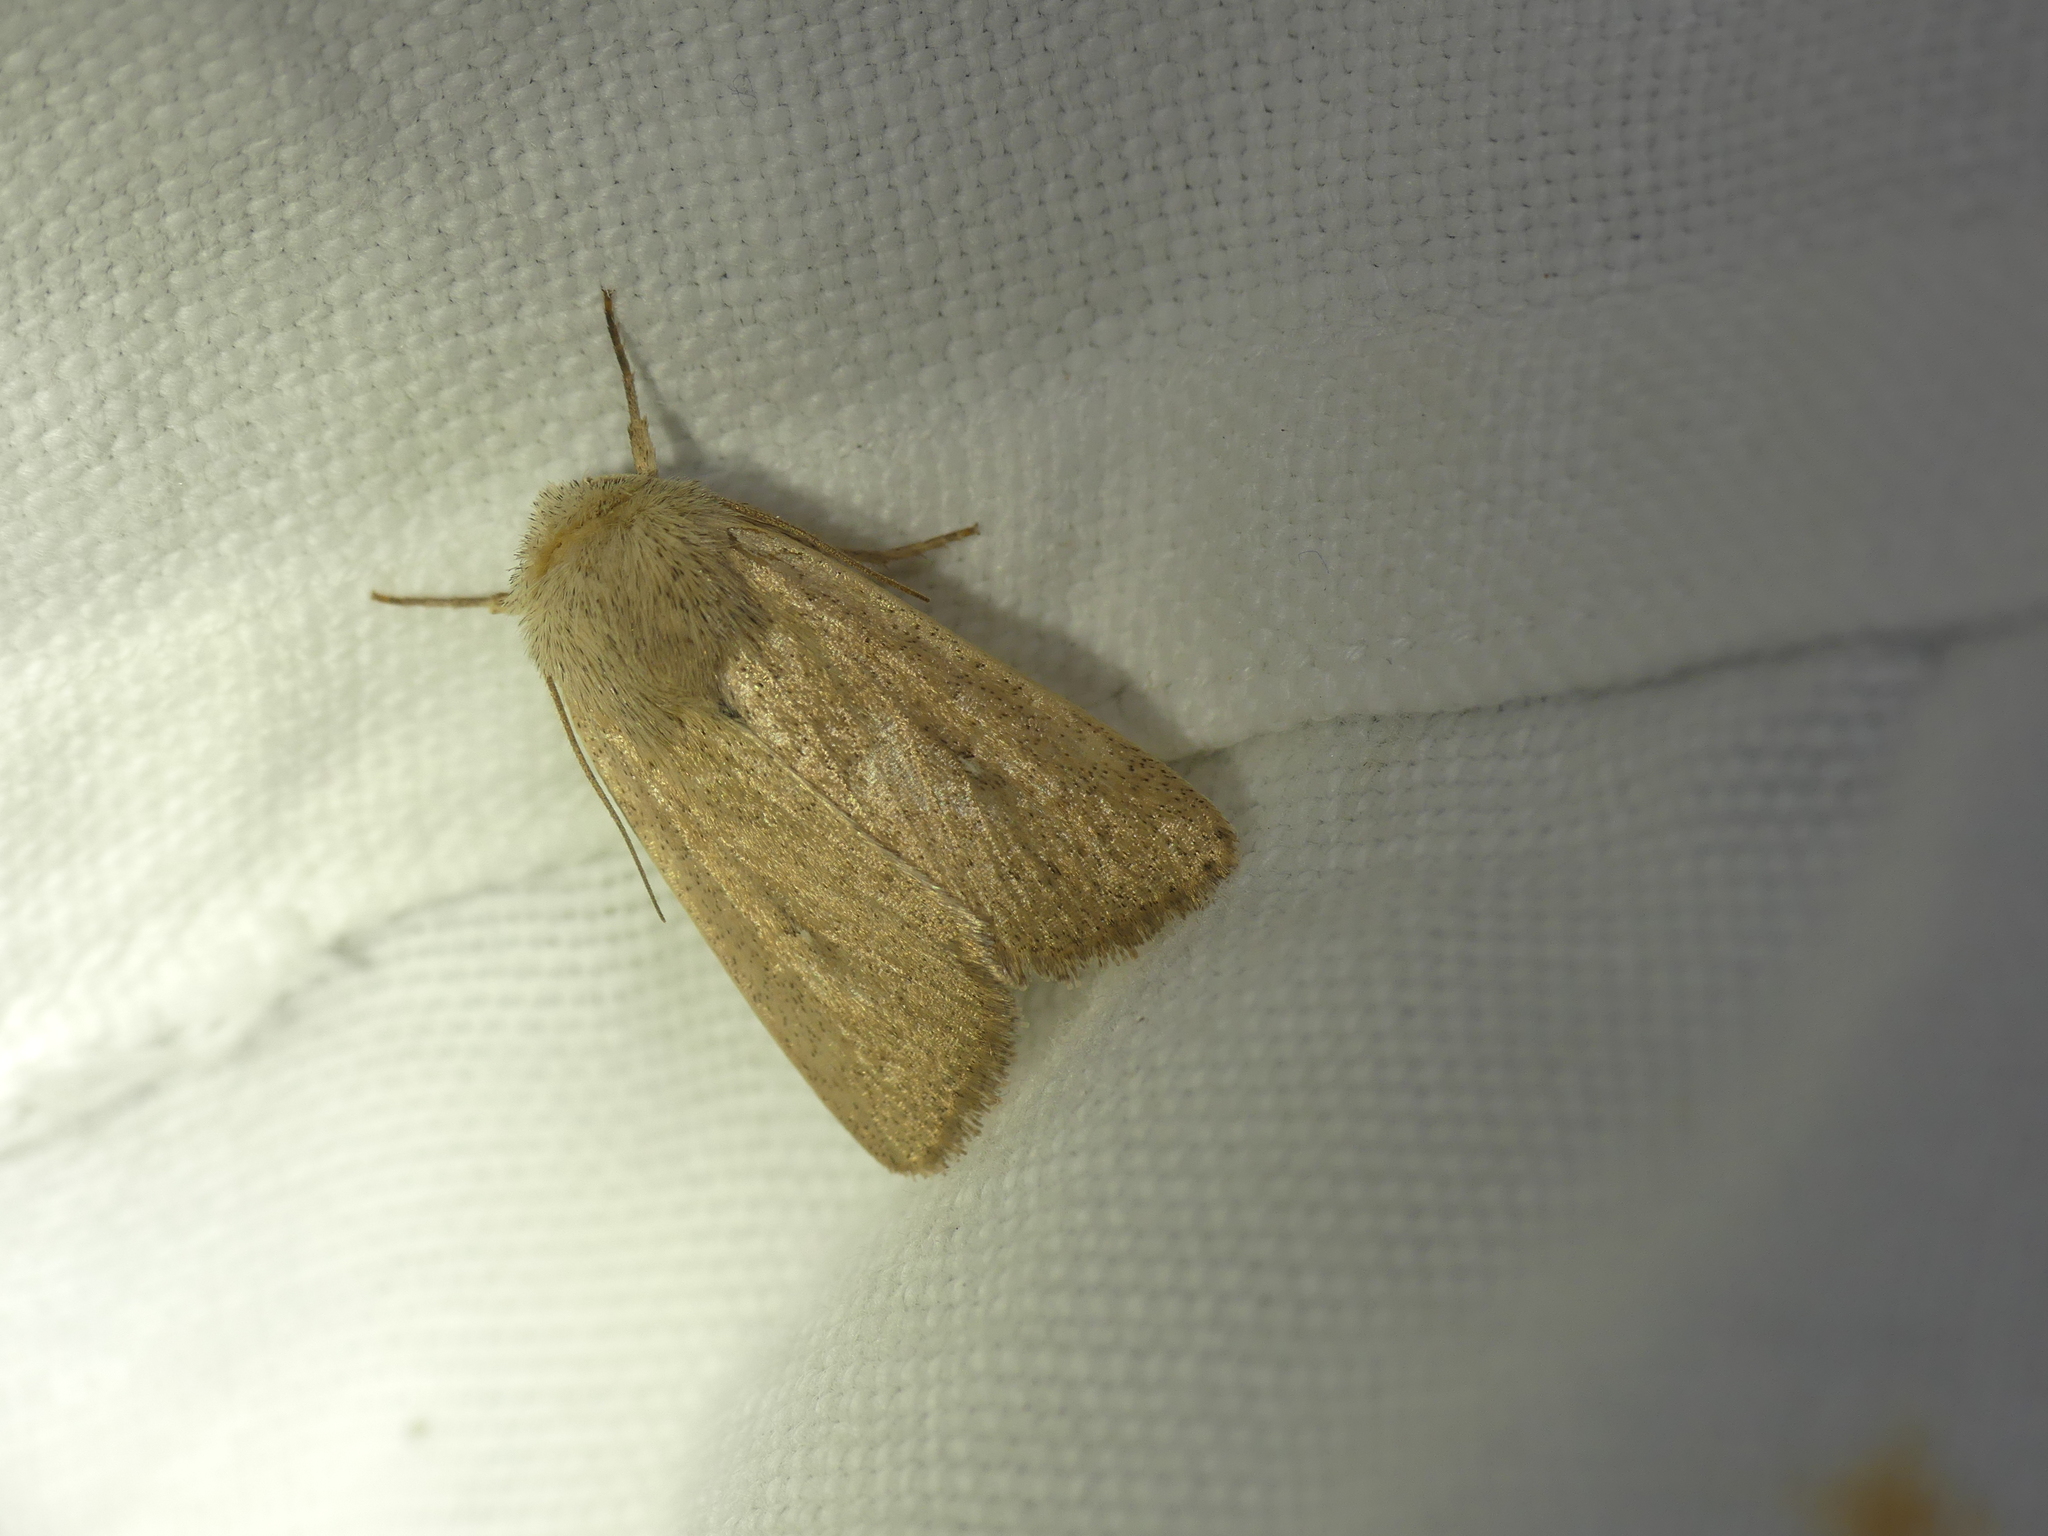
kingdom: Animalia
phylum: Arthropoda
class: Insecta
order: Lepidoptera
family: Noctuidae
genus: Mythimna
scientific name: Mythimna sicula
